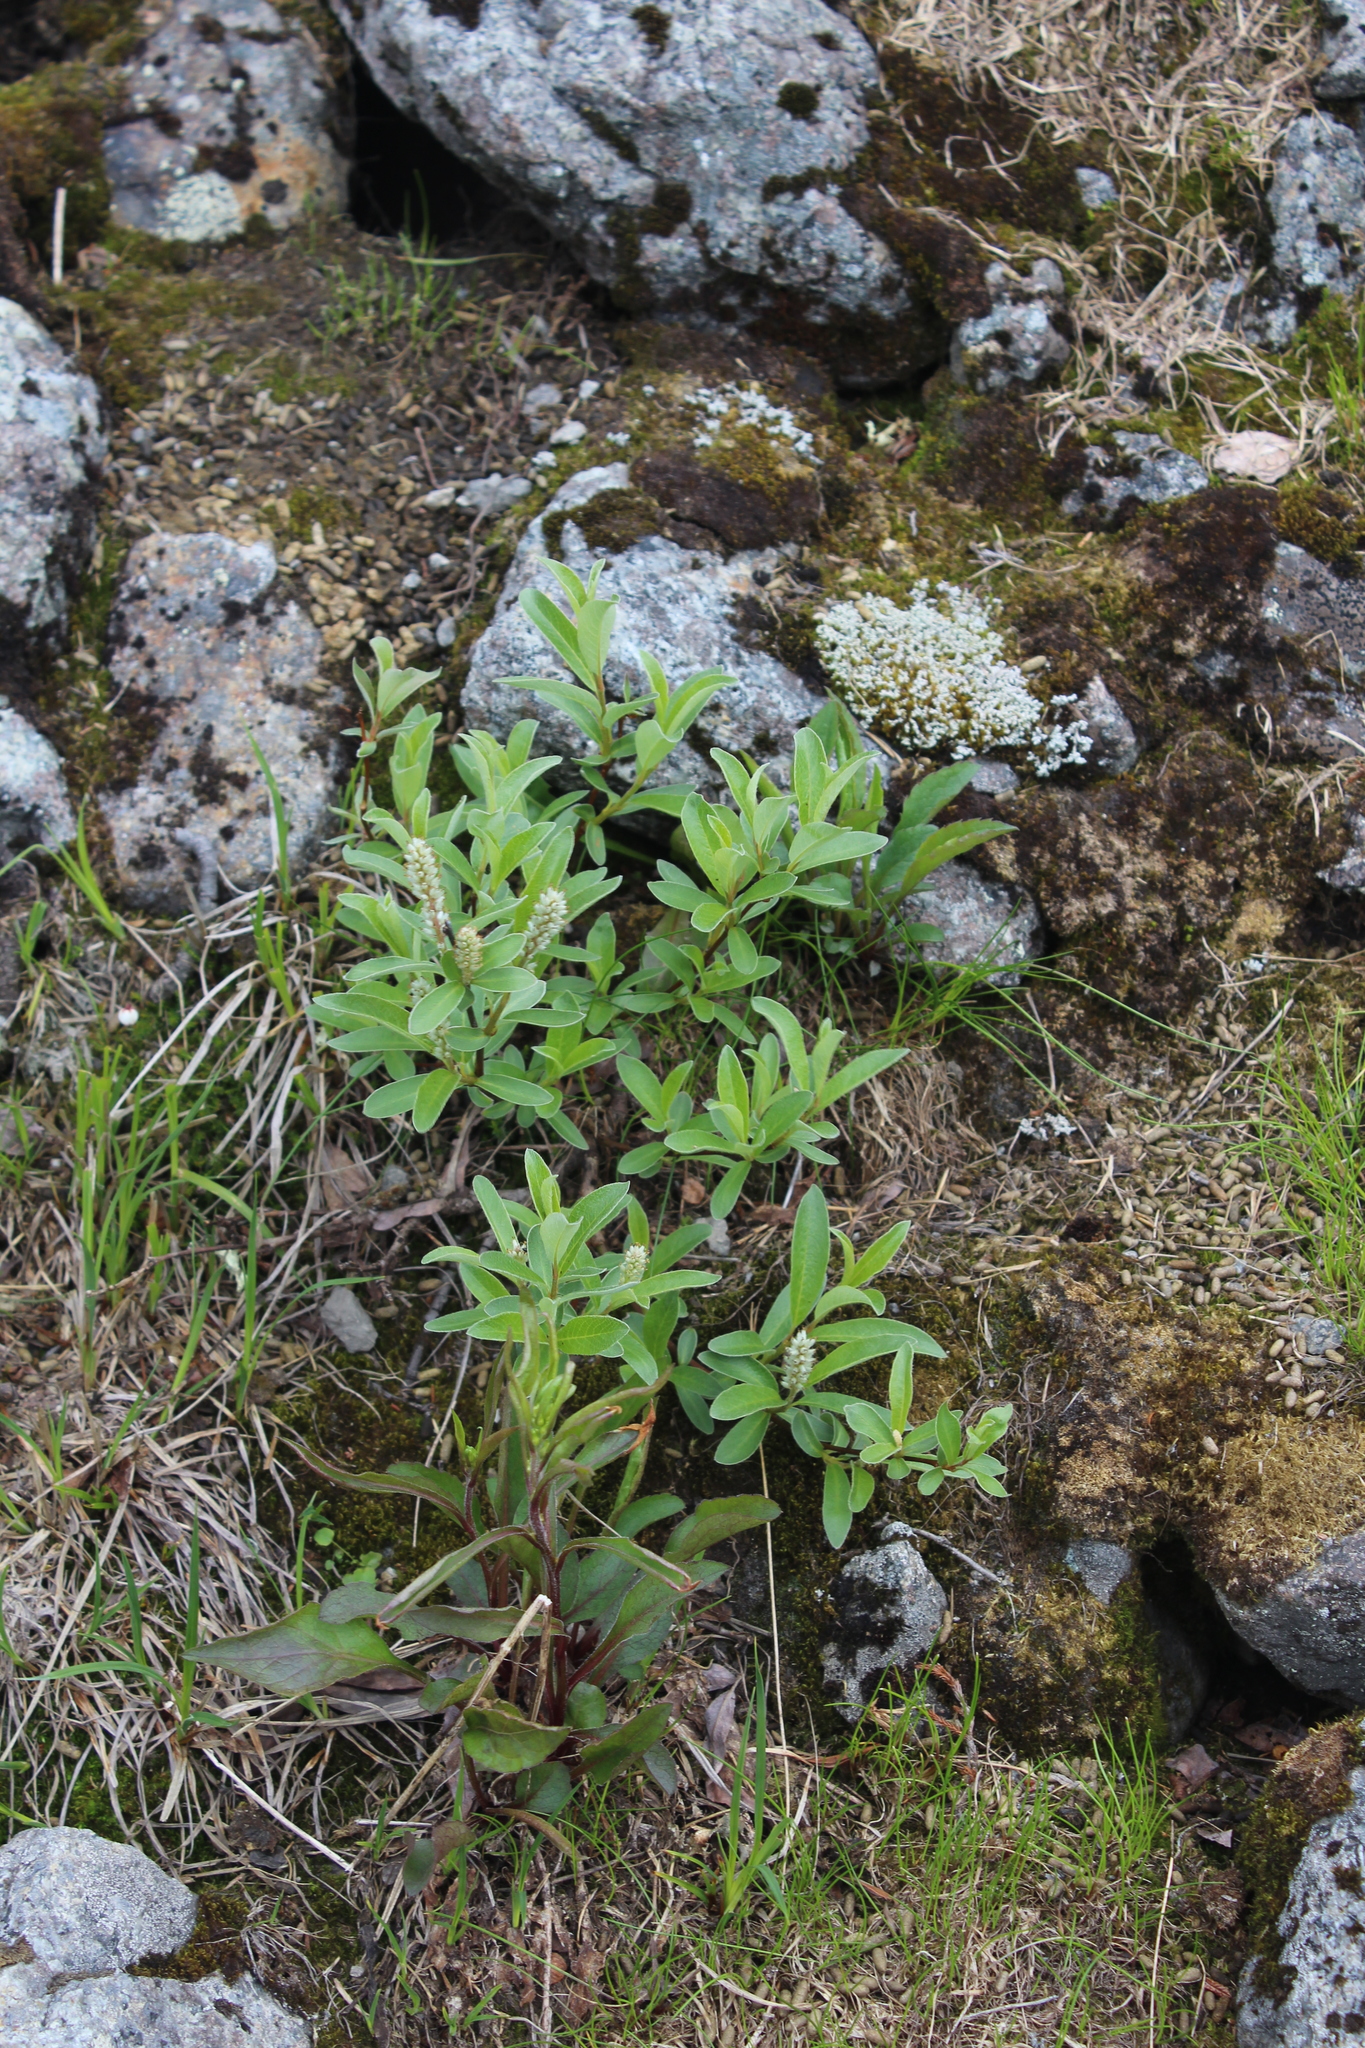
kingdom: Plantae
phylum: Tracheophyta
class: Magnoliopsida
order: Malpighiales
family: Salicaceae
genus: Salix
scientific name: Salix glauca
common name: Glaucous willow
